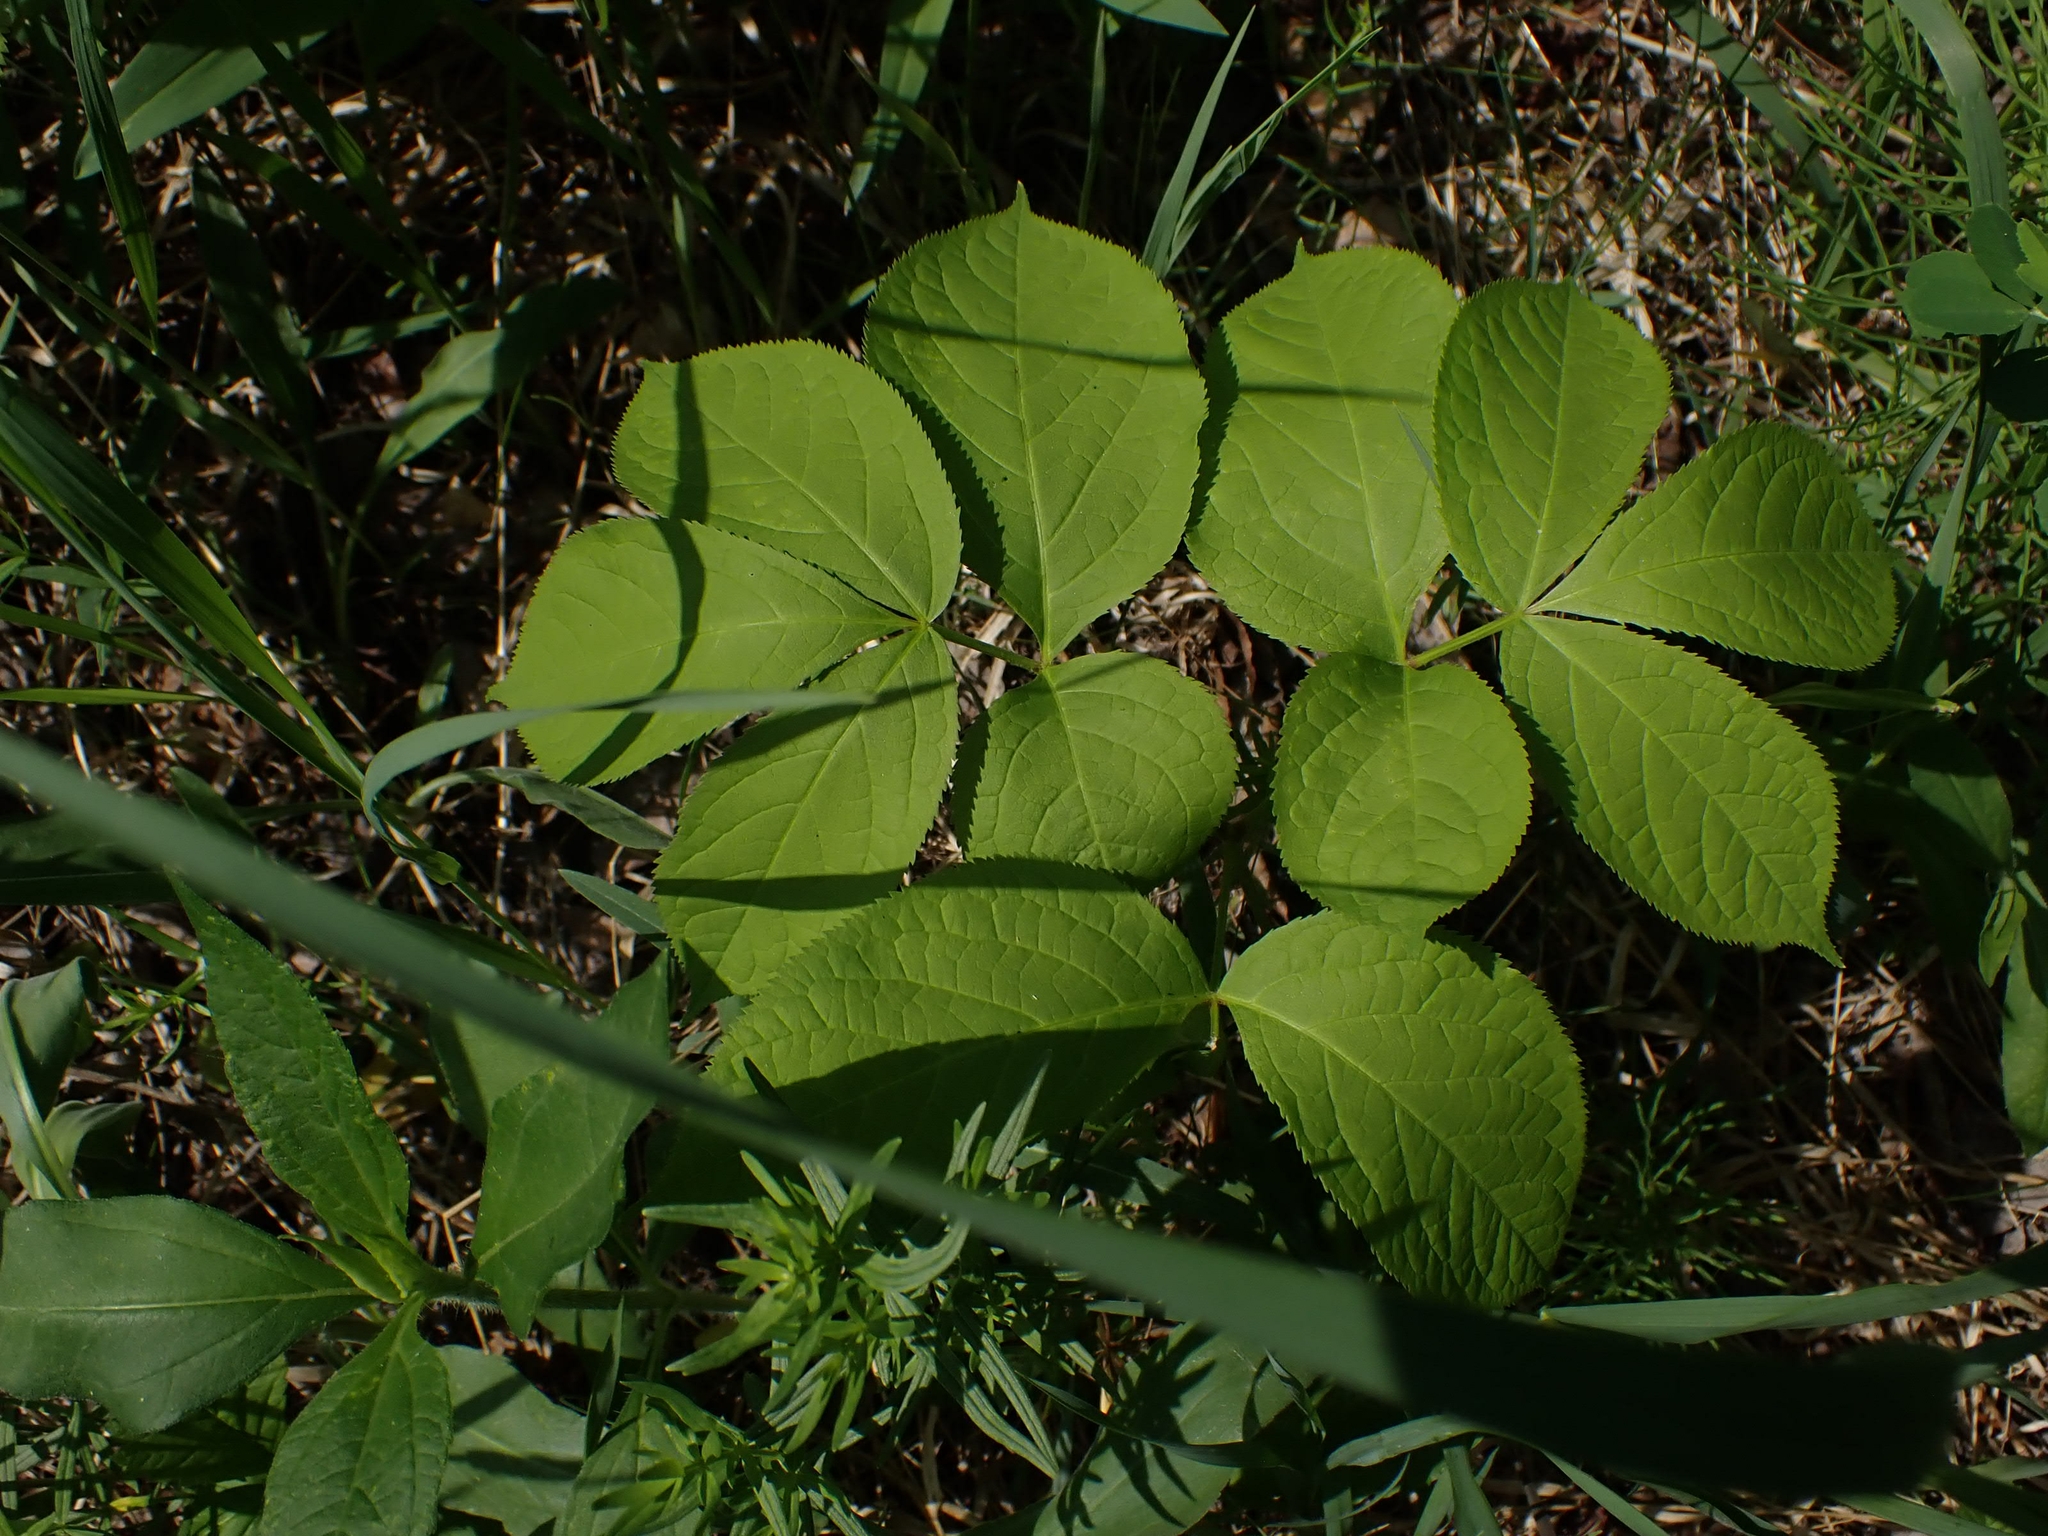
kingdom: Plantae
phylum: Tracheophyta
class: Magnoliopsida
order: Apiales
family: Araliaceae
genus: Aralia
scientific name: Aralia nudicaulis
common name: Wild sarsaparilla
